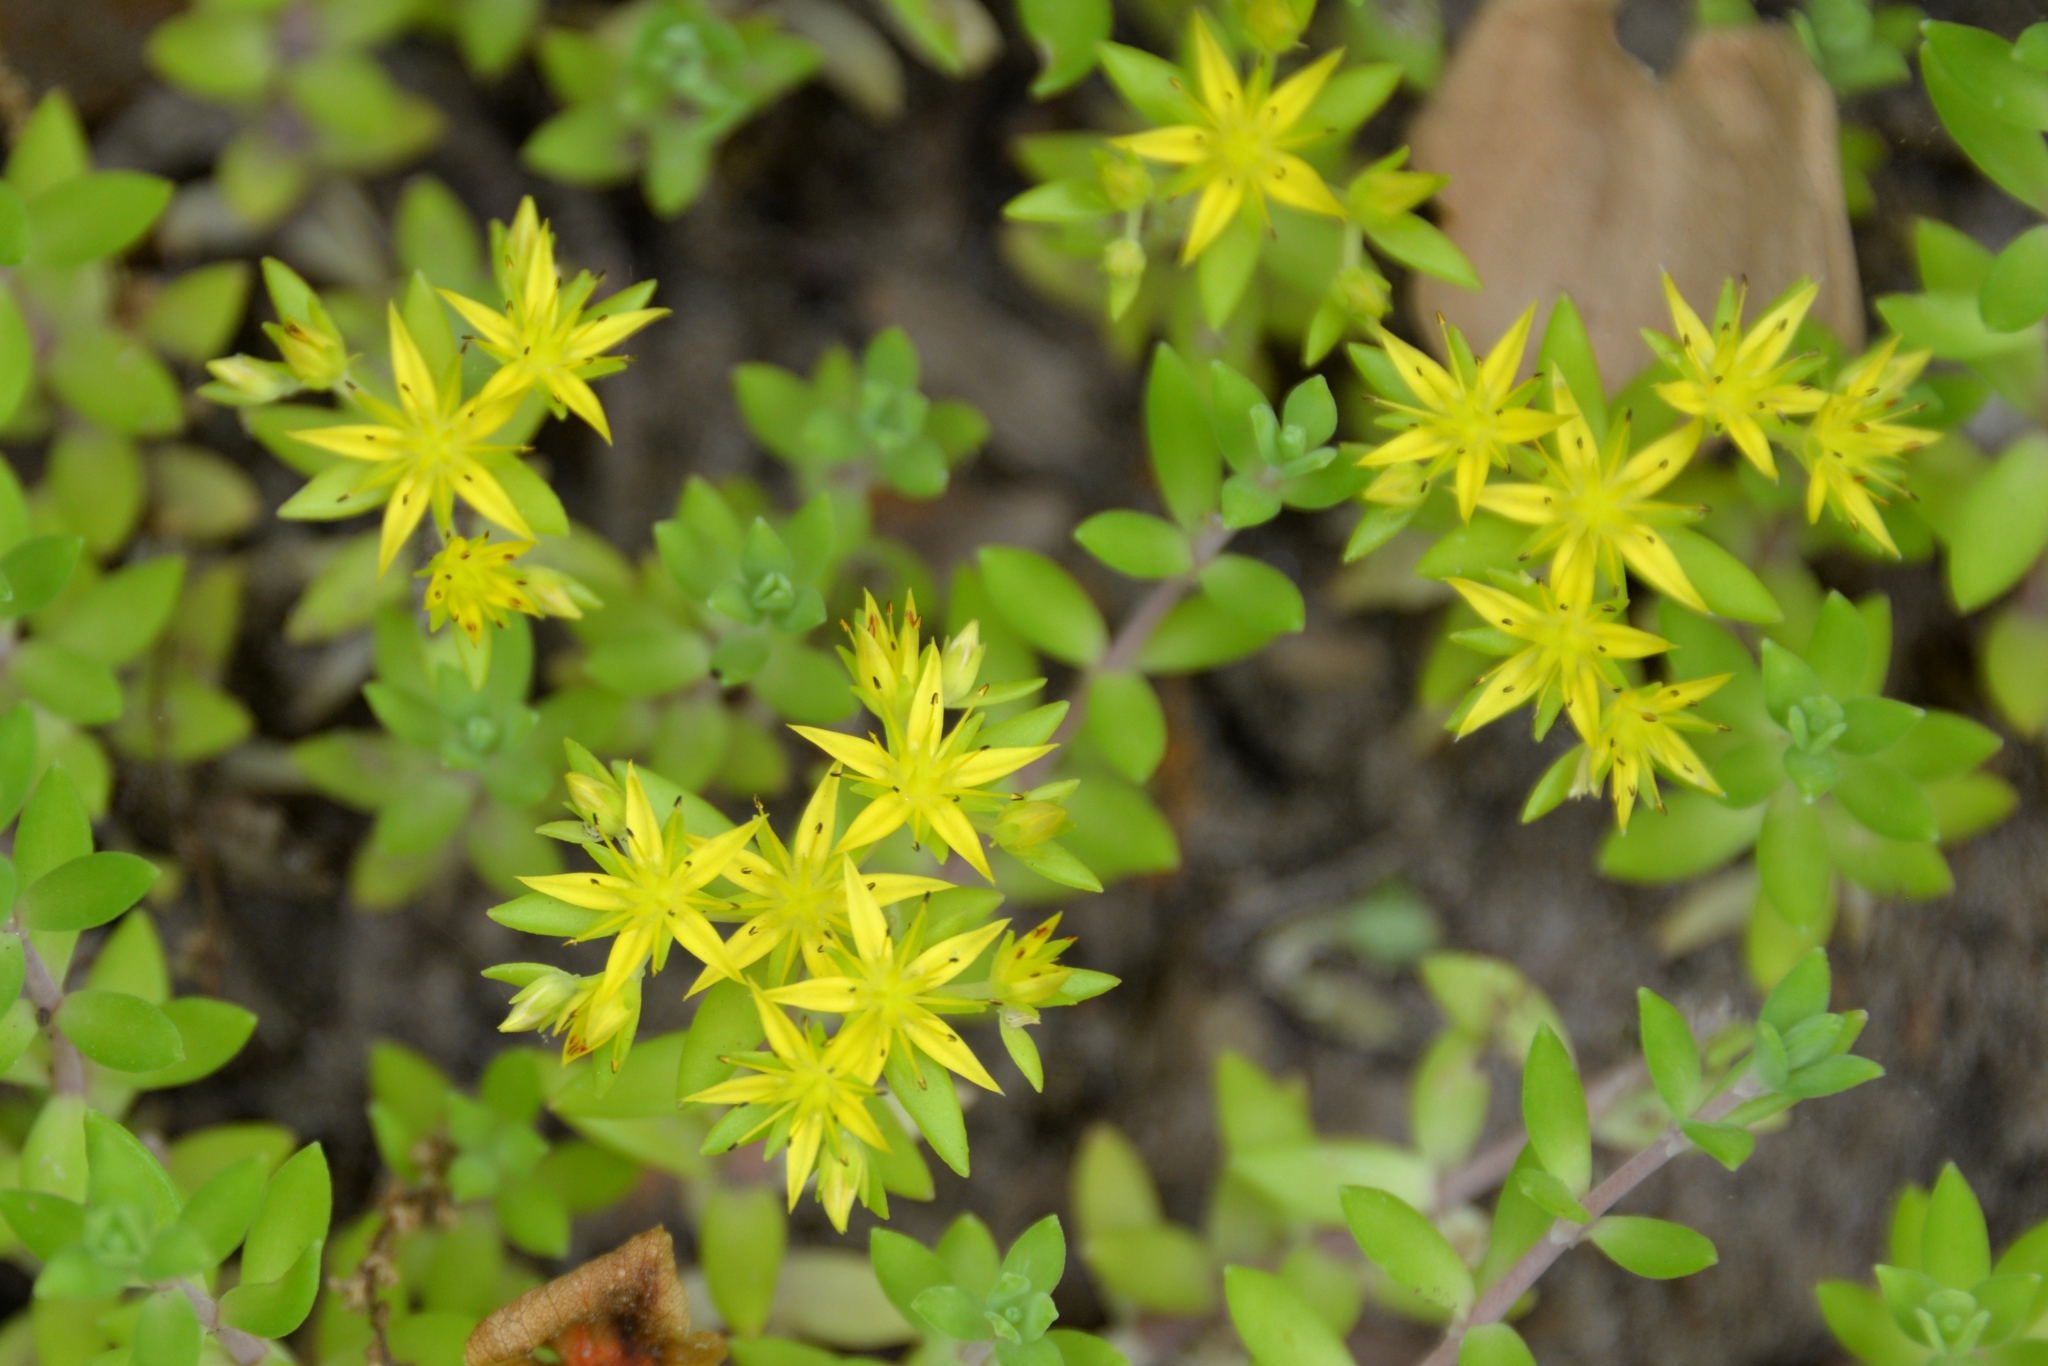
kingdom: Plantae
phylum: Tracheophyta
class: Magnoliopsida
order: Saxifragales
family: Crassulaceae
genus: Sedum
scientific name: Sedum sarmentosum
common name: Stringy stonecrop
